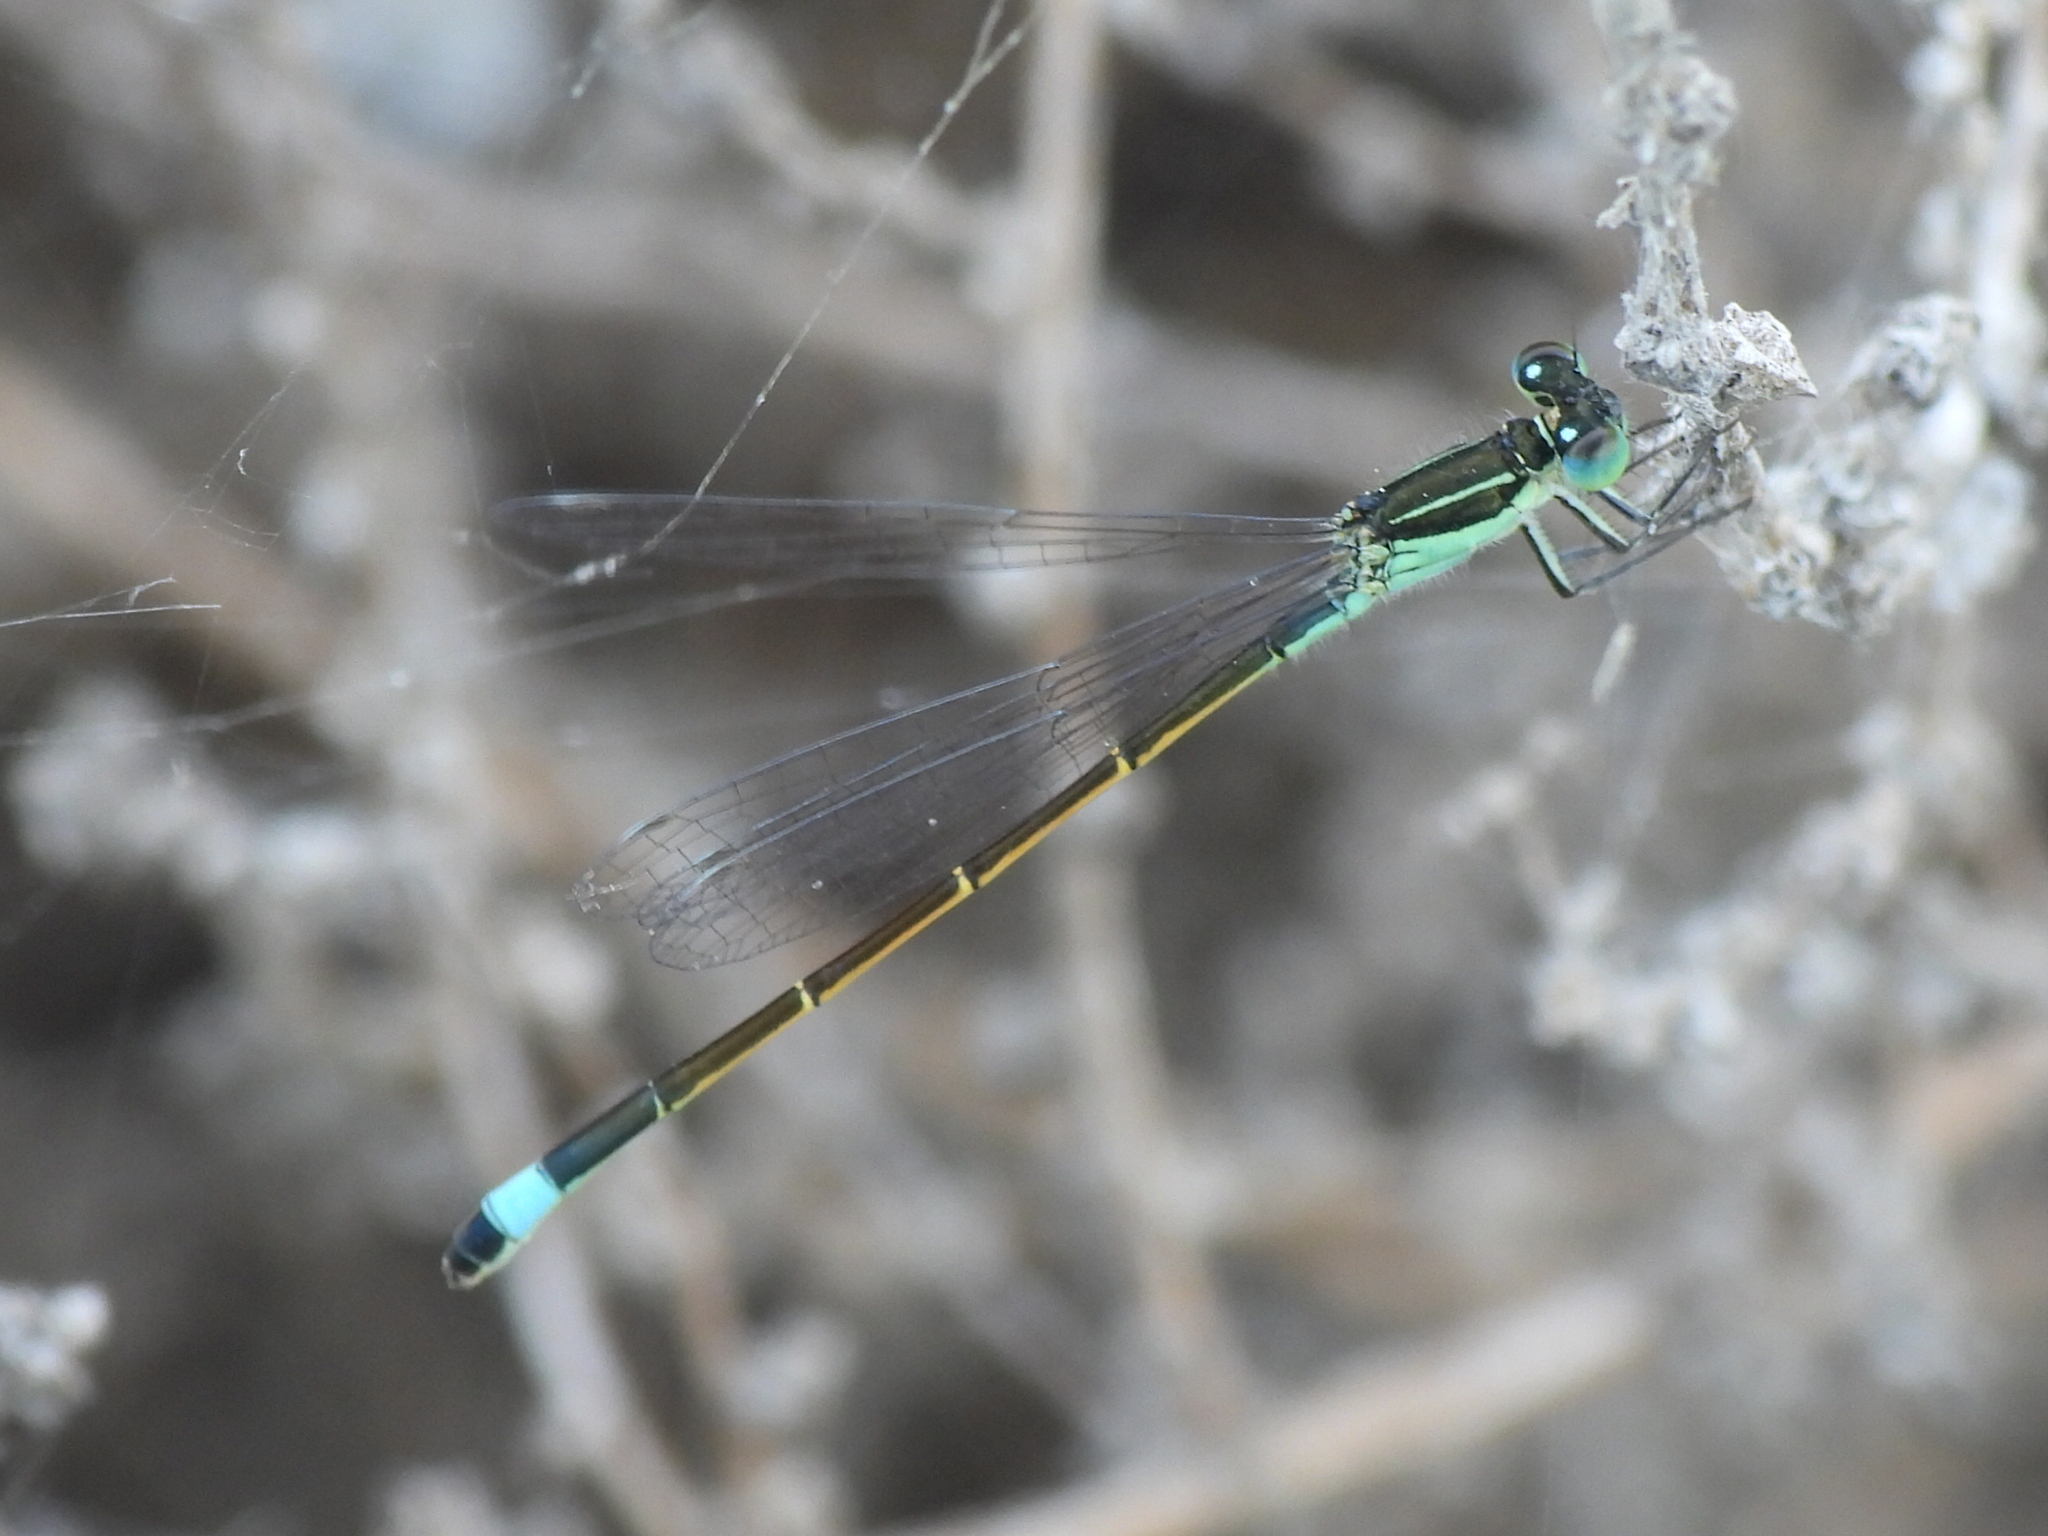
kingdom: Animalia
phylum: Arthropoda
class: Insecta
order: Odonata
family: Coenagrionidae
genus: Ischnura
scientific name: Ischnura evansi
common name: Desert bluetail
